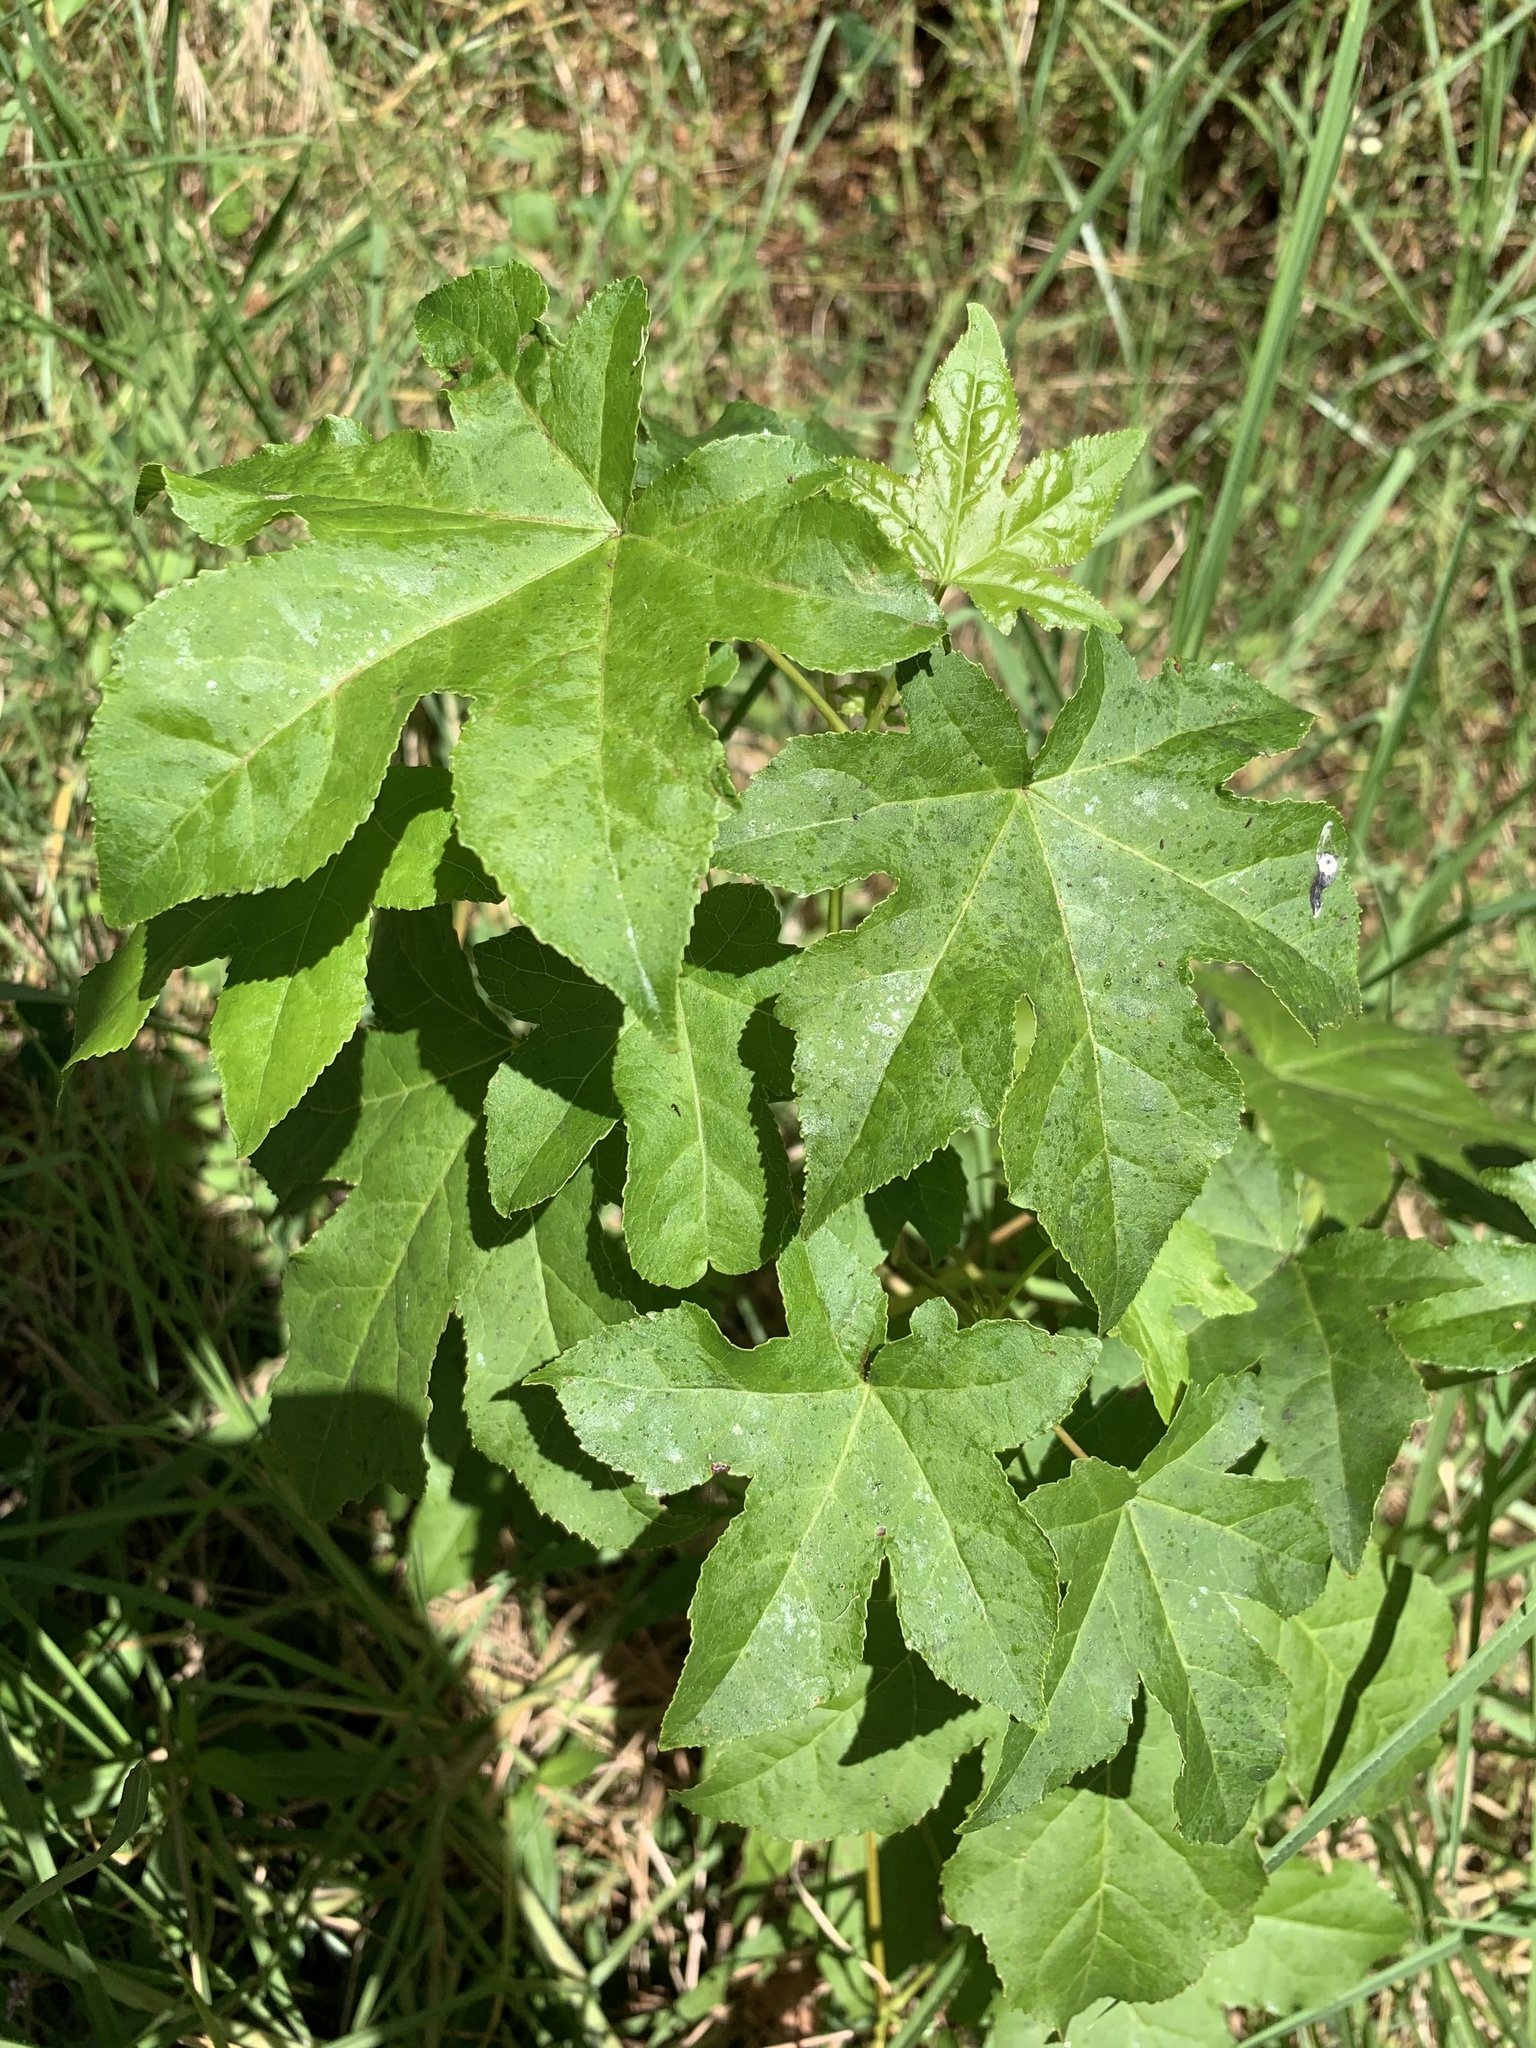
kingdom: Plantae
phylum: Tracheophyta
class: Magnoliopsida
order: Saxifragales
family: Altingiaceae
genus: Liquidambar
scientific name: Liquidambar styraciflua
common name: Sweet gum
